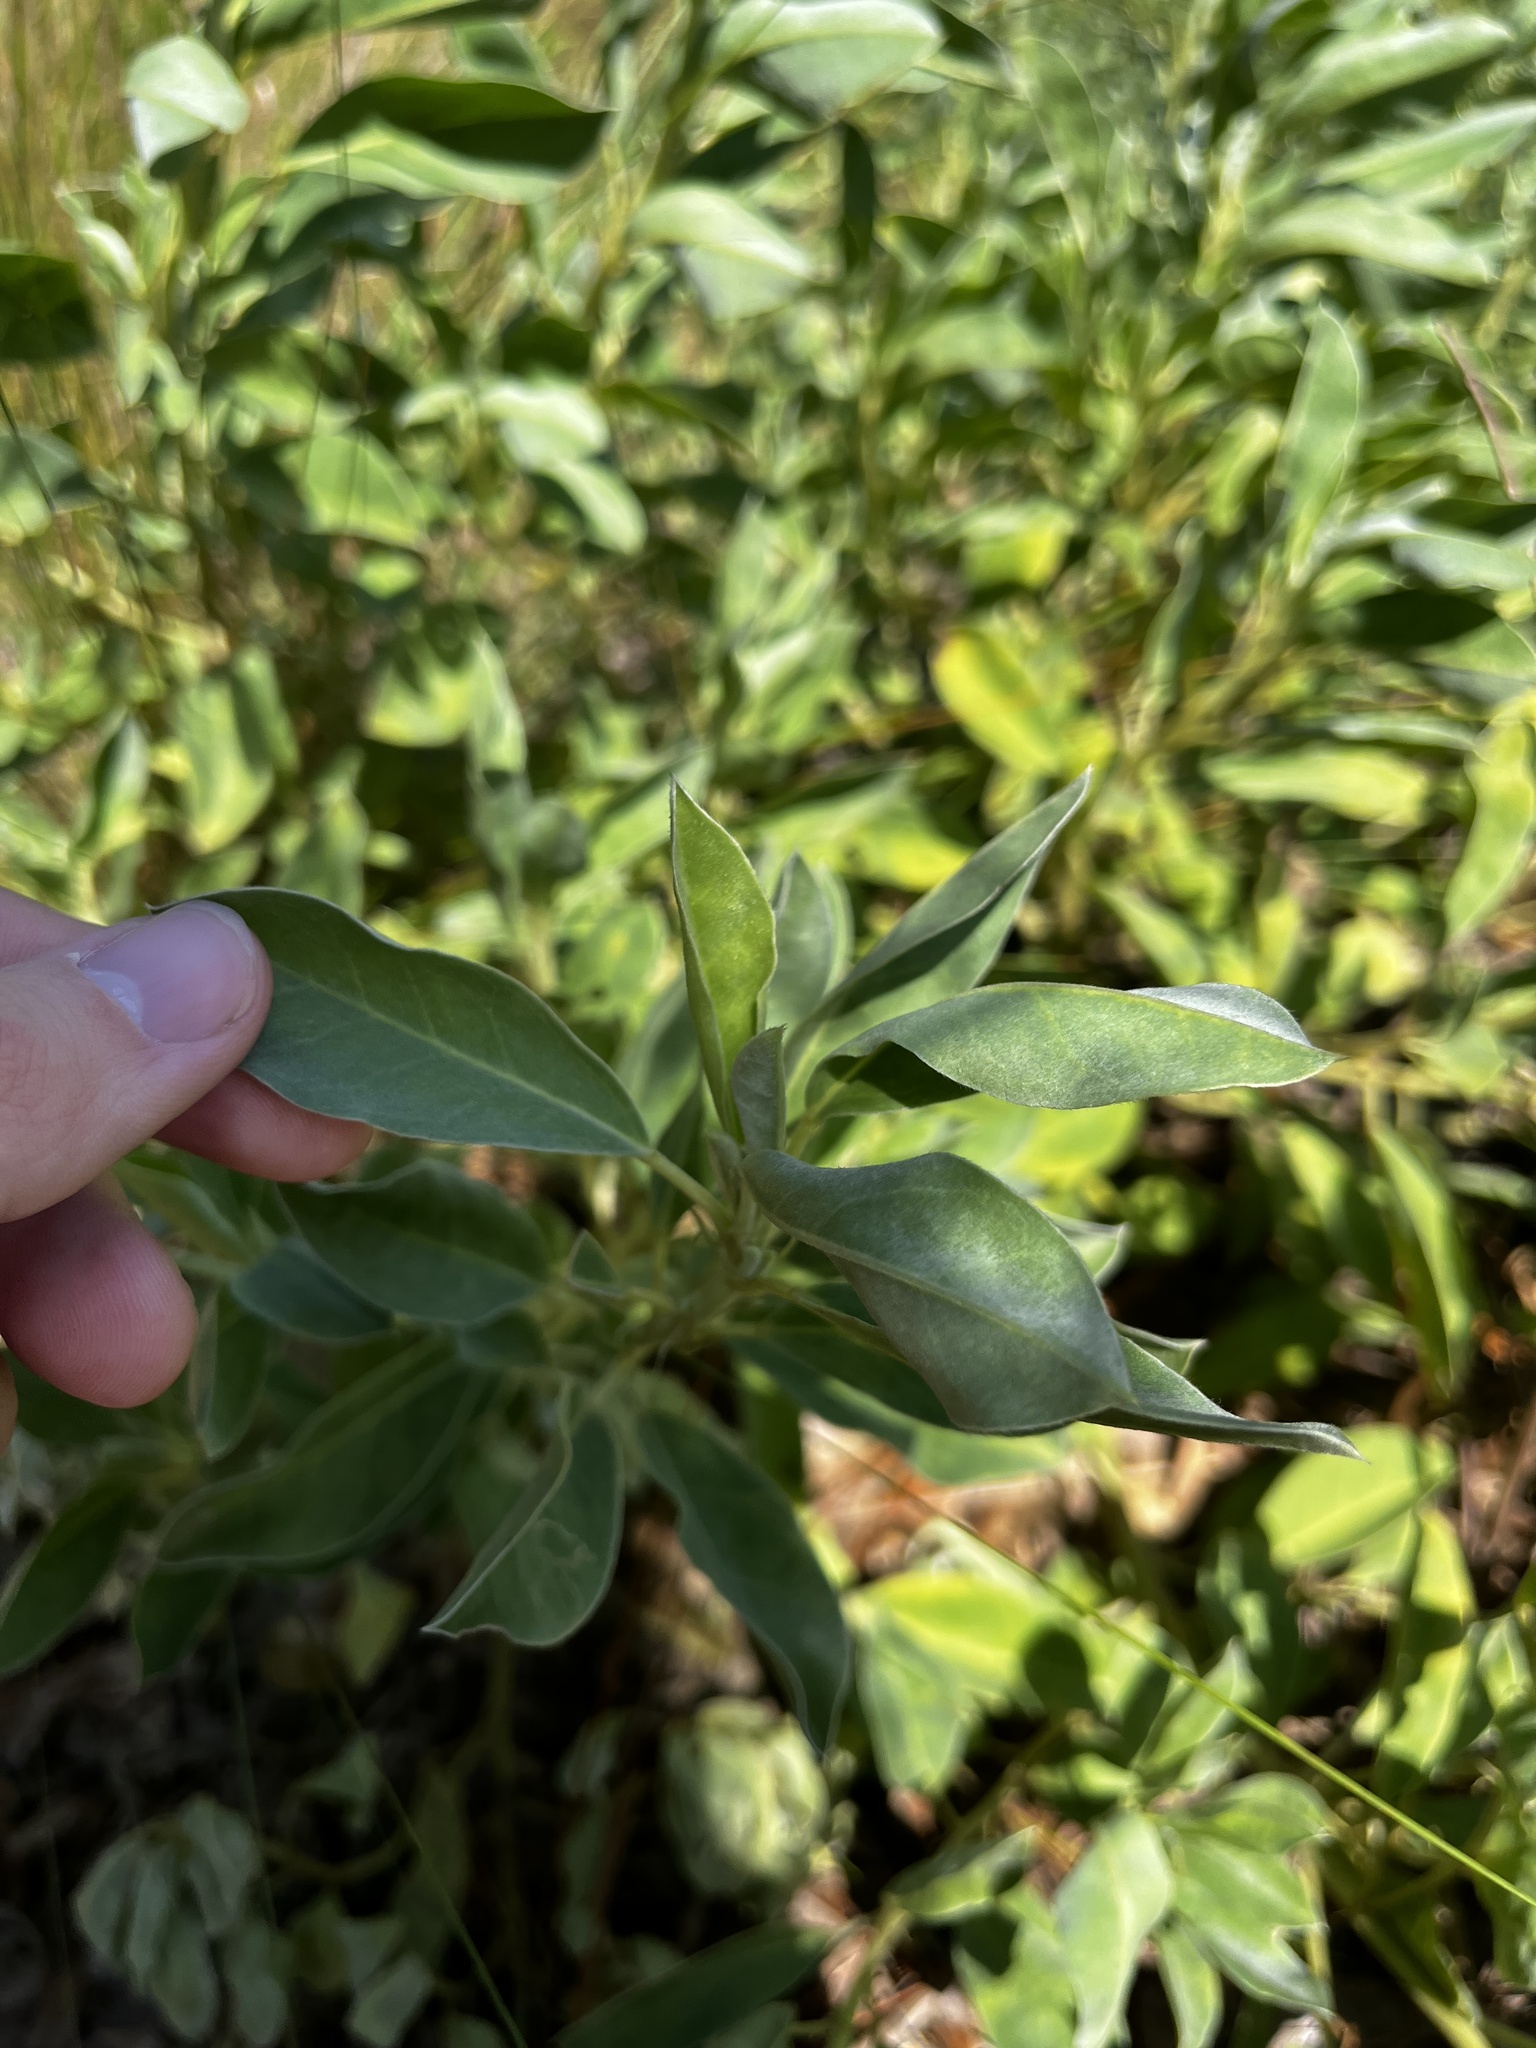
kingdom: Plantae
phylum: Tracheophyta
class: Magnoliopsida
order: Fabales
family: Fabaceae
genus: Lupinus
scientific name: Lupinus
